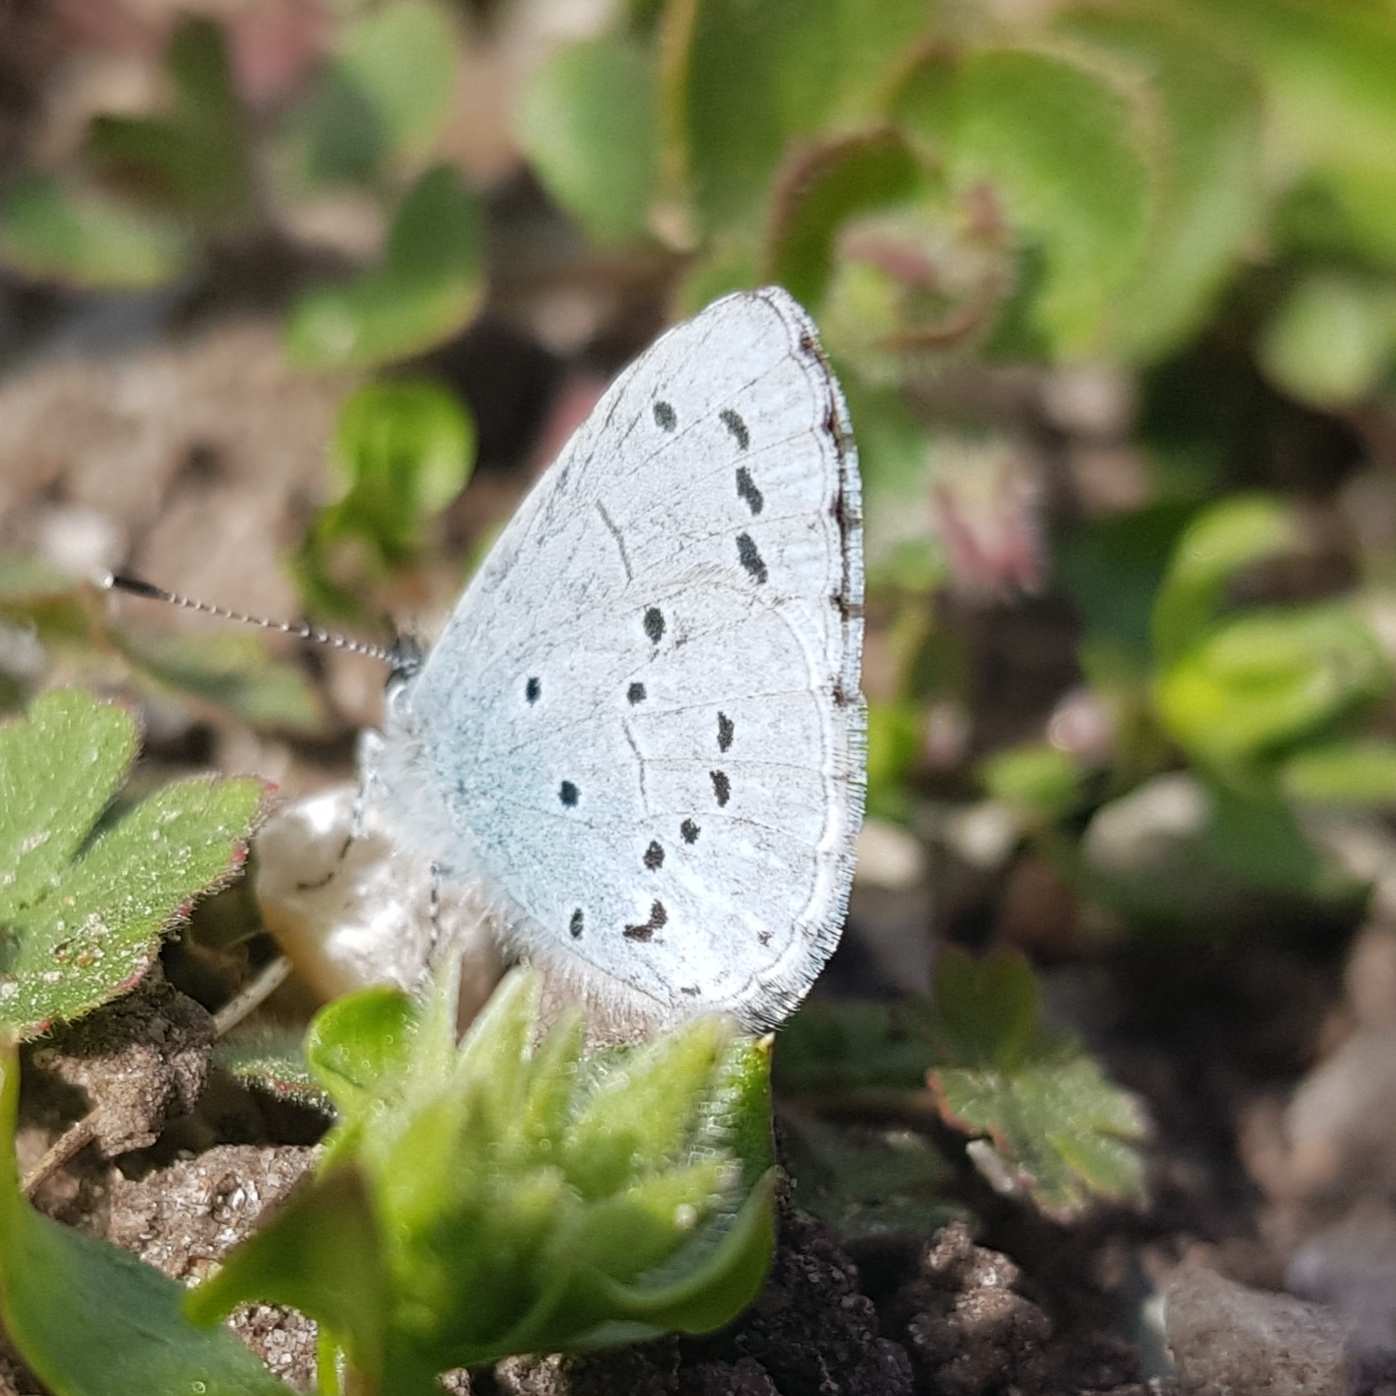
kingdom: Animalia
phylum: Arthropoda
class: Insecta
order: Lepidoptera
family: Lycaenidae
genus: Celastrina
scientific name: Celastrina argiolus
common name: Holly blue
